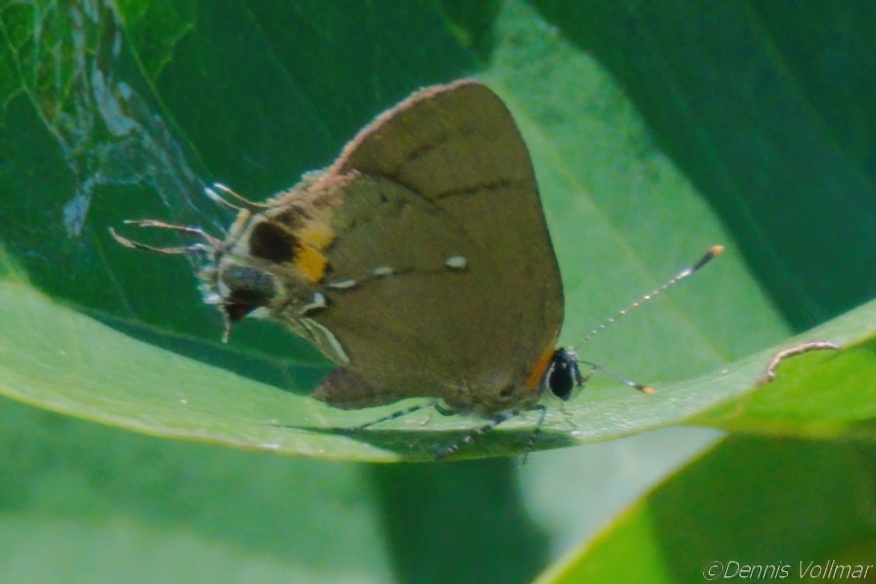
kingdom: Animalia
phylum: Arthropoda
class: Insecta
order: Lepidoptera
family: Lycaenidae
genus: Thecla
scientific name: Thecla angelia
